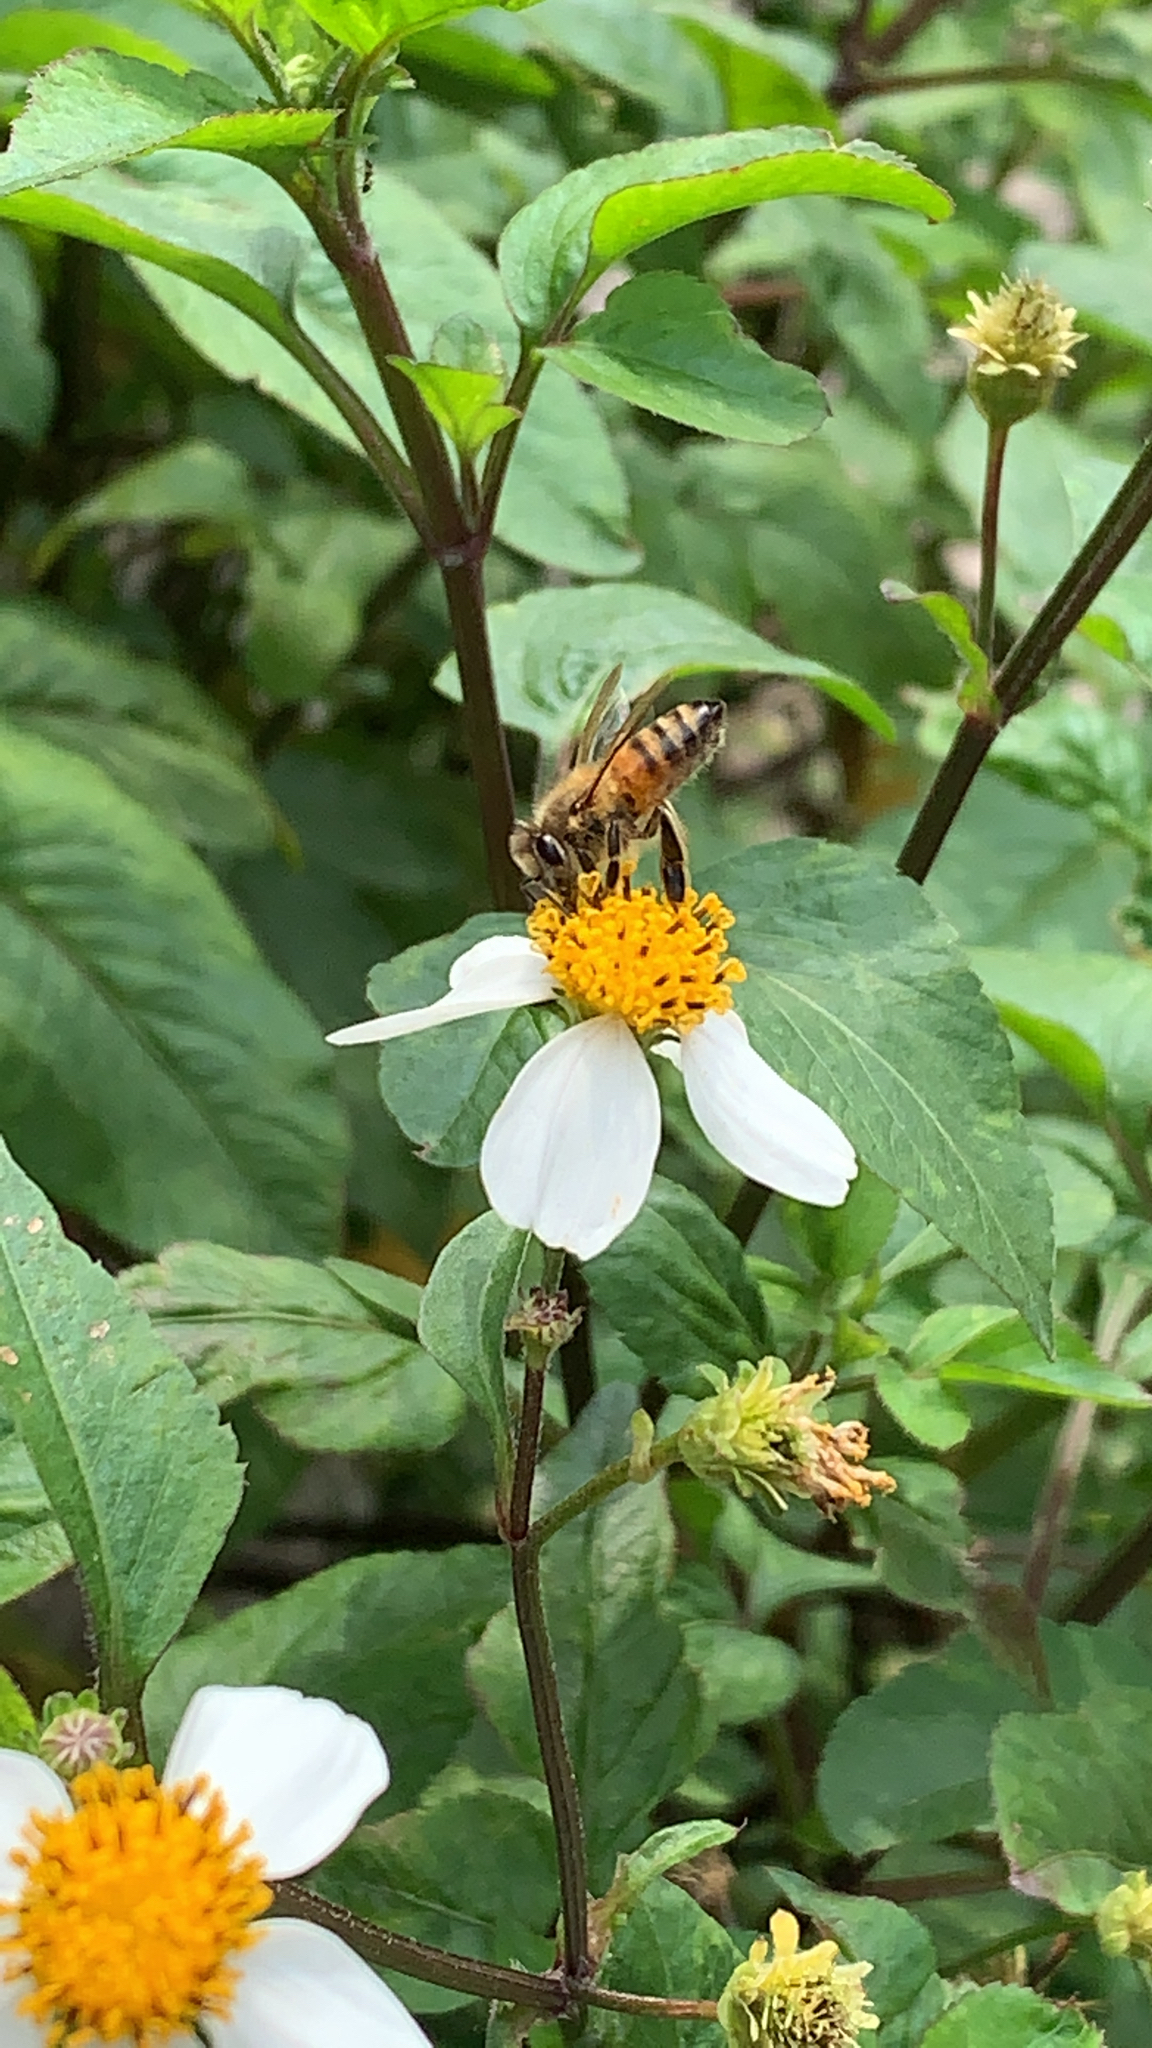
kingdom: Animalia
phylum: Arthropoda
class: Insecta
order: Hymenoptera
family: Apidae
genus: Apis
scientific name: Apis mellifera
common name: Honey bee
